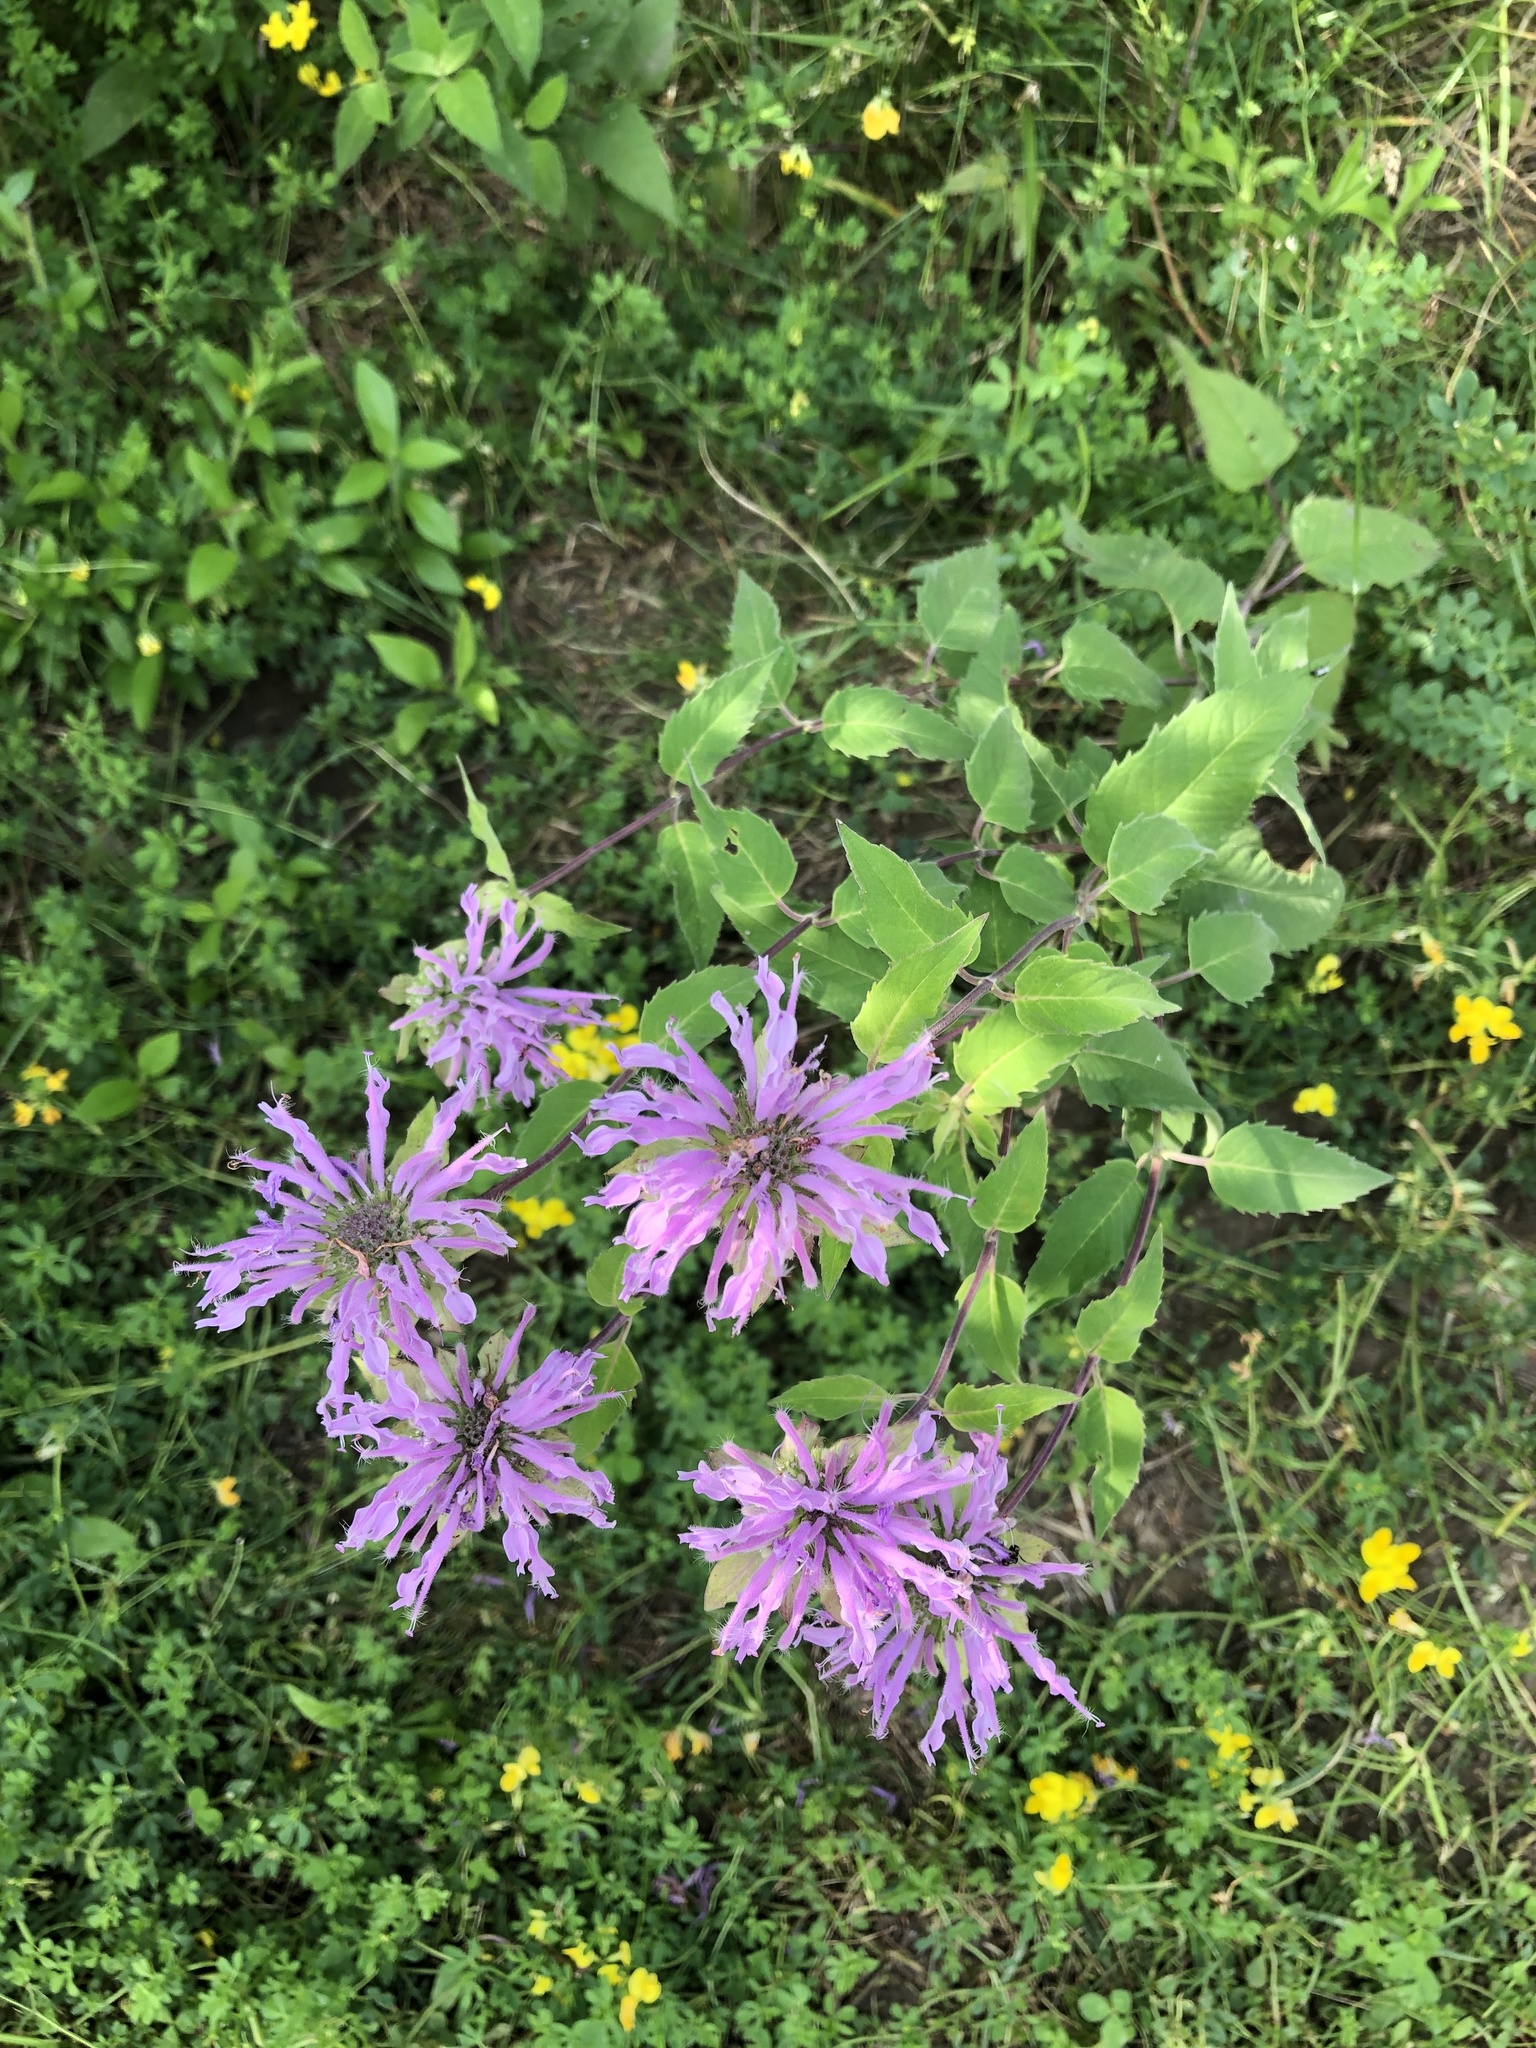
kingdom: Plantae
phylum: Tracheophyta
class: Magnoliopsida
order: Lamiales
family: Lamiaceae
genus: Monarda
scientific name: Monarda fistulosa
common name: Purple beebalm
